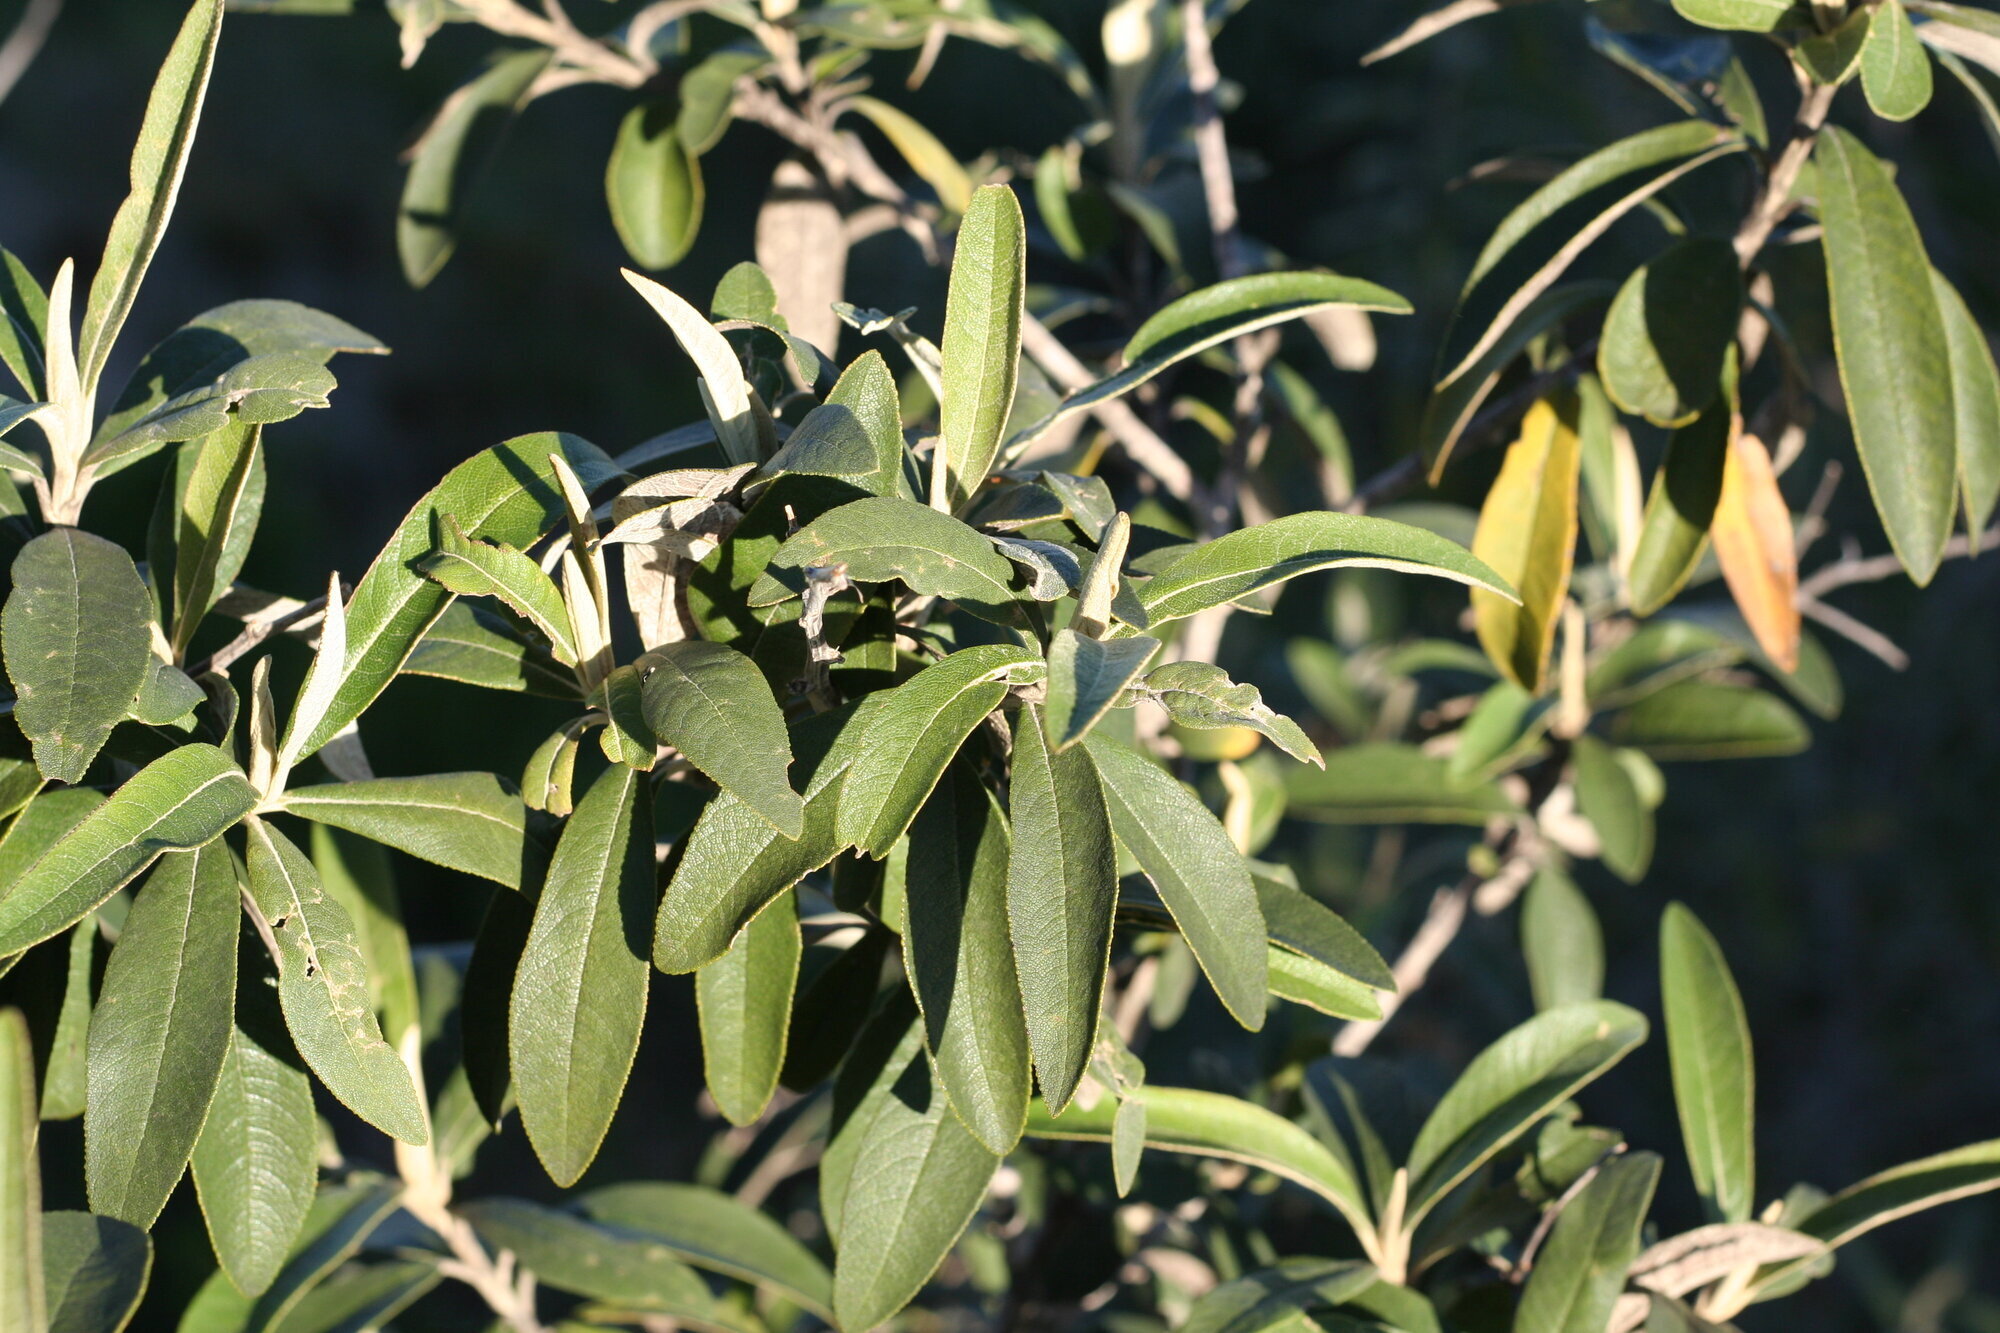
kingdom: Plantae
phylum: Tracheophyta
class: Magnoliopsida
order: Asterales
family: Asteraceae
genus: Tarchonanthus
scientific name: Tarchonanthus littoralis
